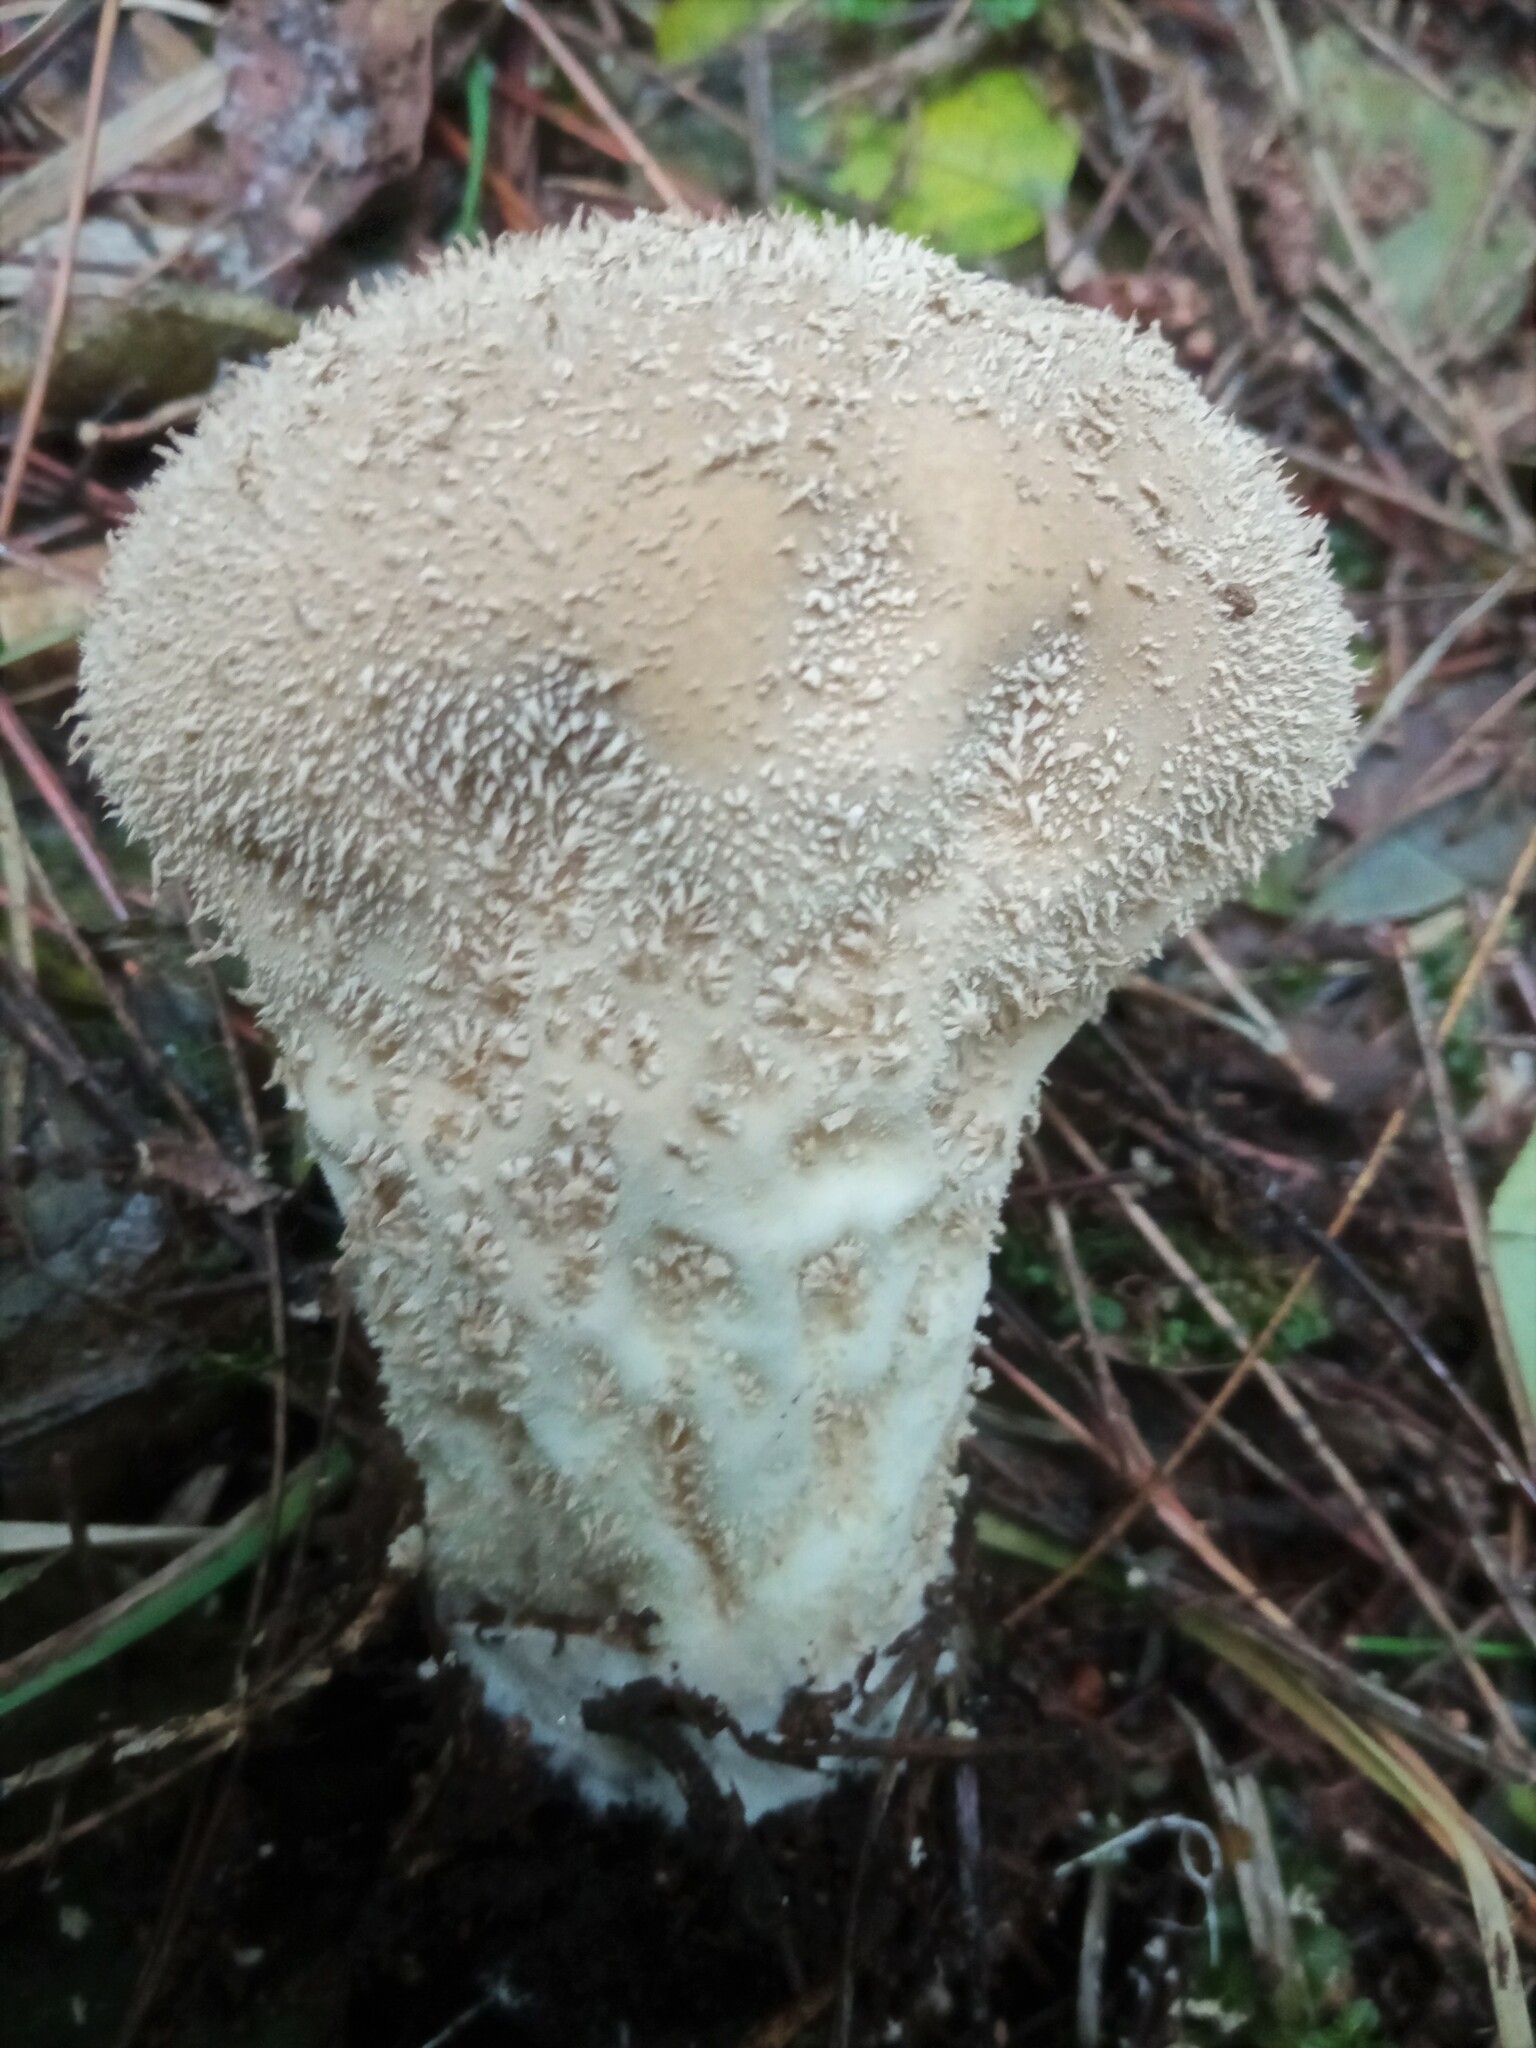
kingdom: Fungi
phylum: Basidiomycota
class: Agaricomycetes
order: Agaricales
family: Lycoperdaceae
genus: Lycoperdon
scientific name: Lycoperdon perlatum
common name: Common puffball
